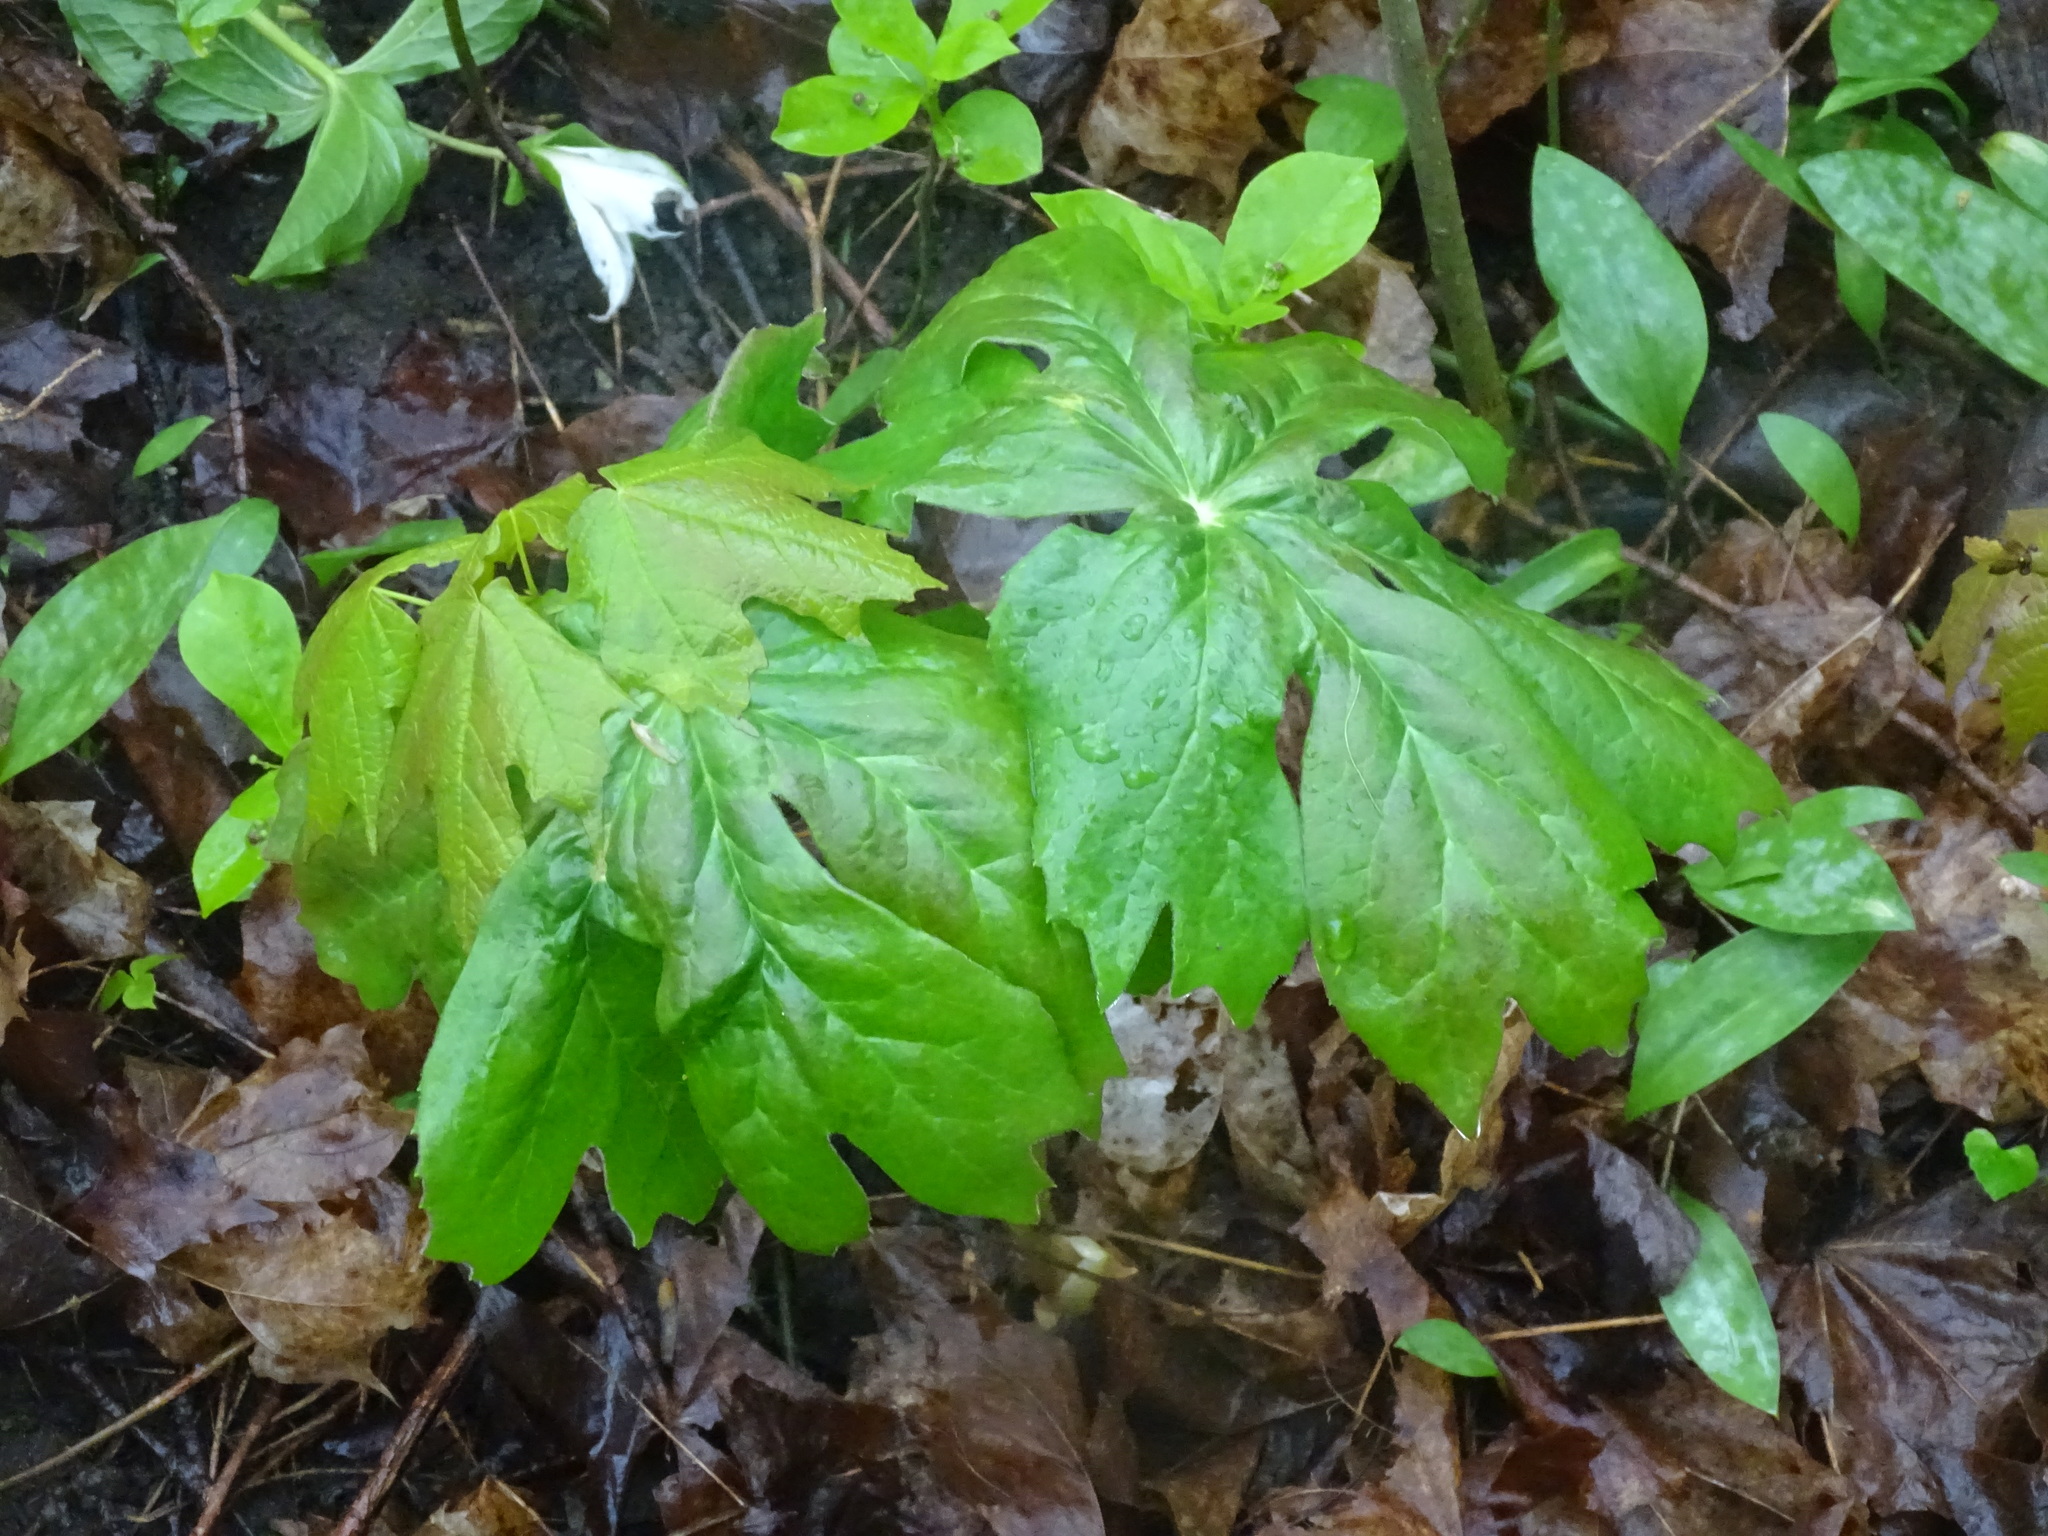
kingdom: Plantae
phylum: Tracheophyta
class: Magnoliopsida
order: Ranunculales
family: Berberidaceae
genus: Podophyllum
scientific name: Podophyllum peltatum
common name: Wild mandrake
